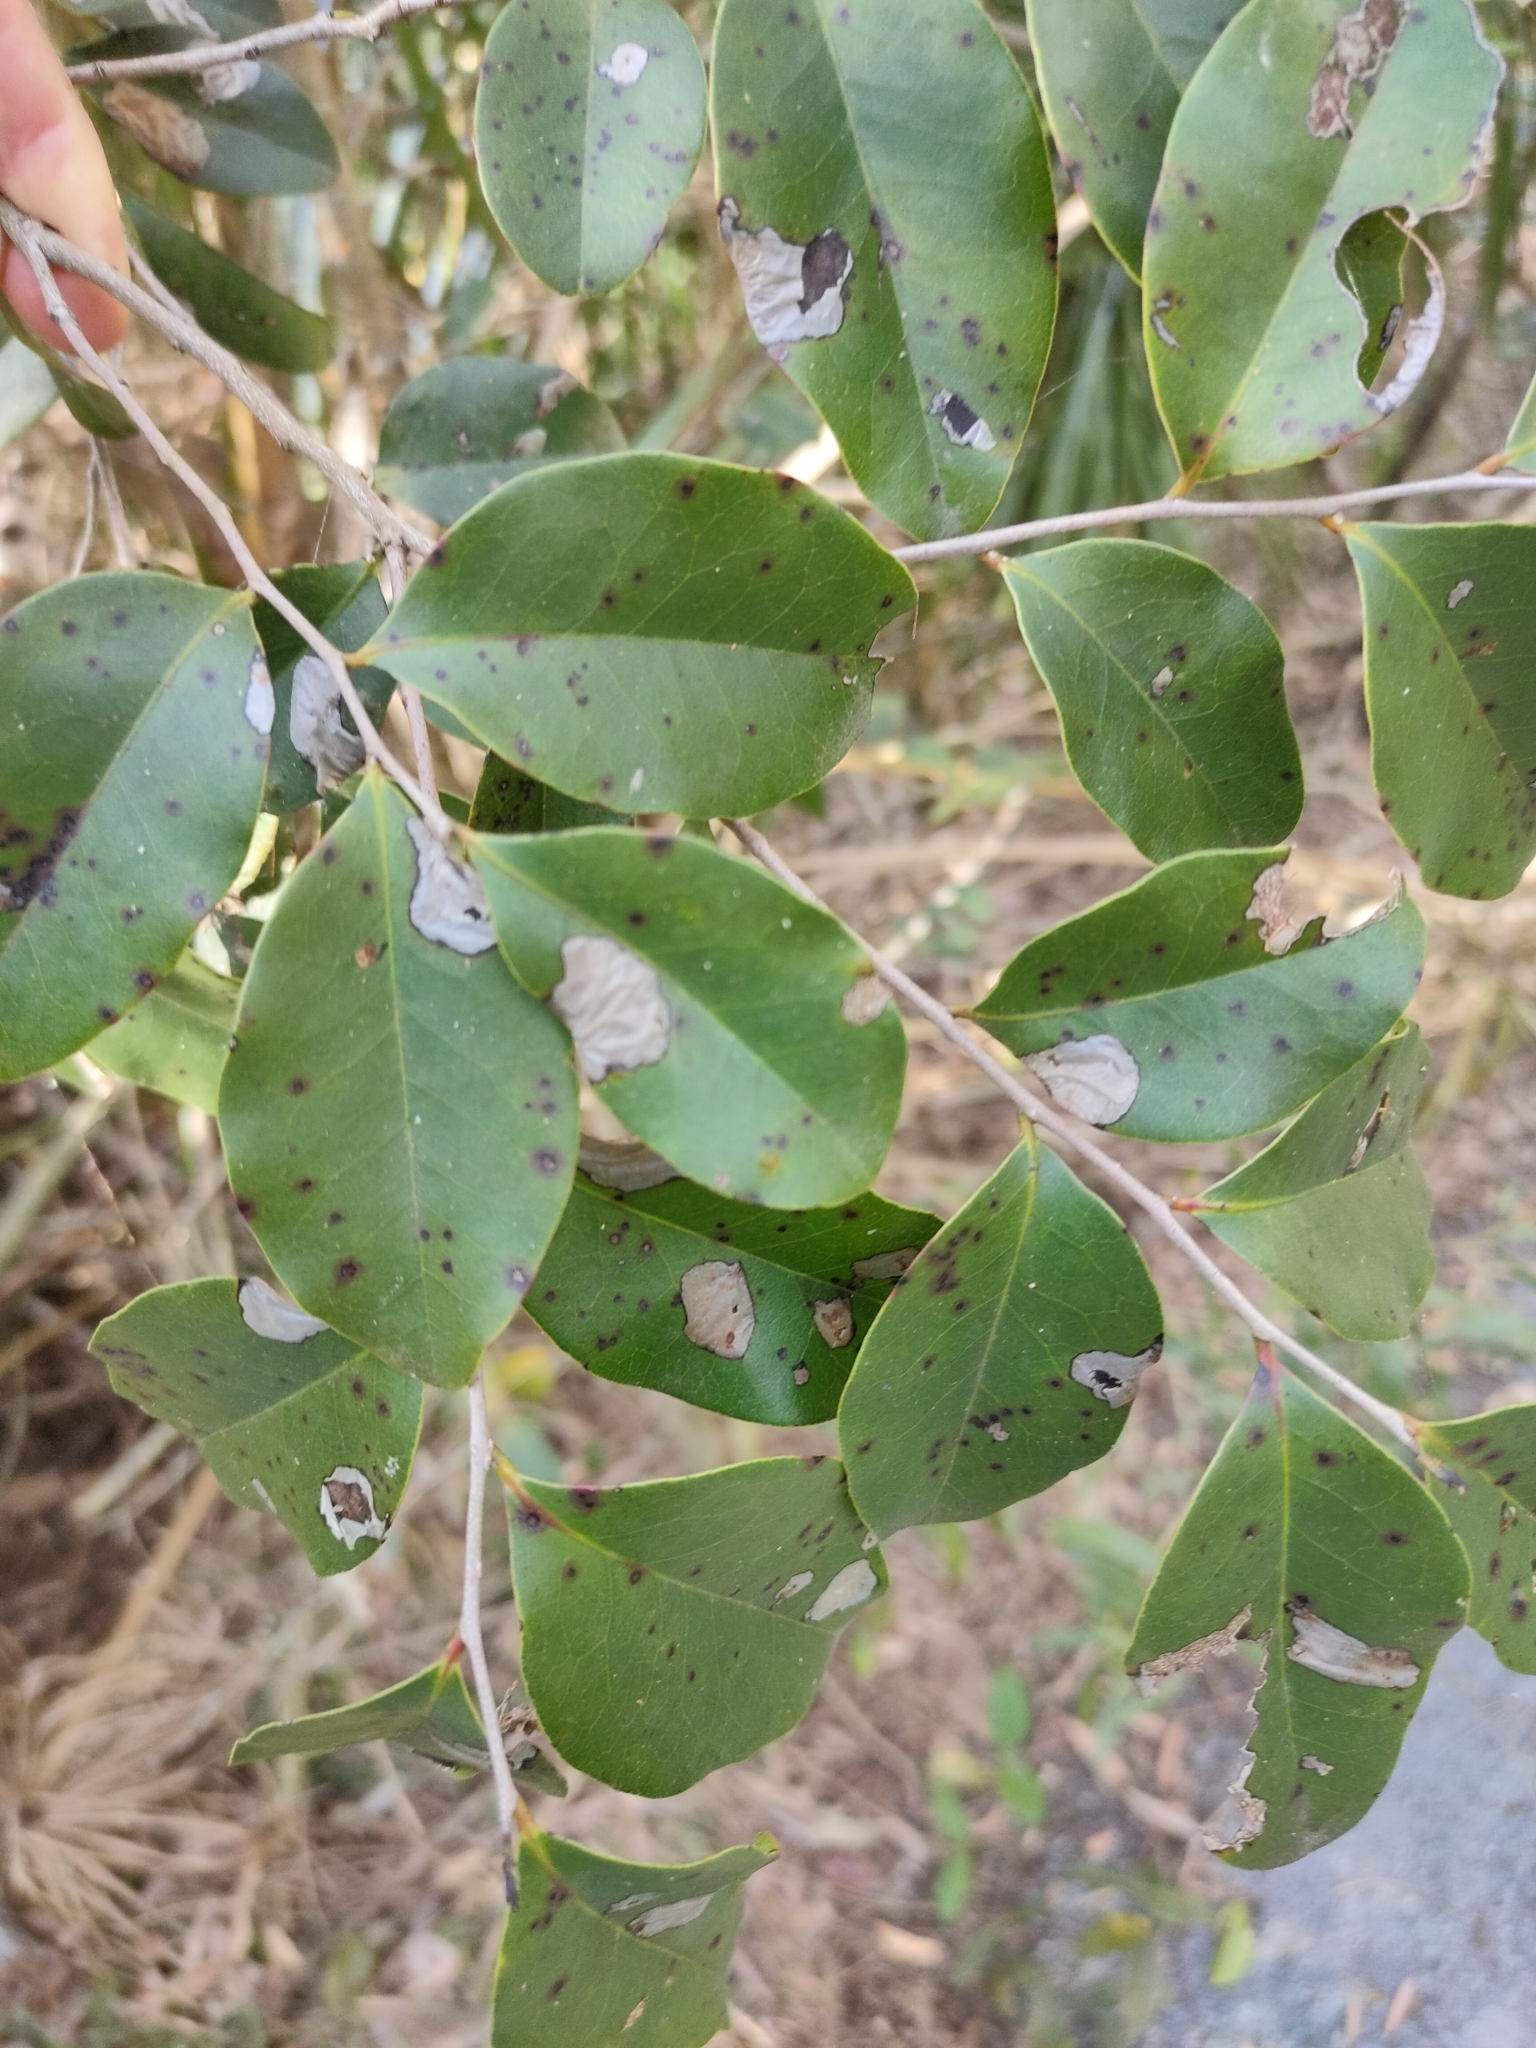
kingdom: Plantae
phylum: Tracheophyta
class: Magnoliopsida
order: Ericales
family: Ebenaceae
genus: Diospyros
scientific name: Diospyros geminata
